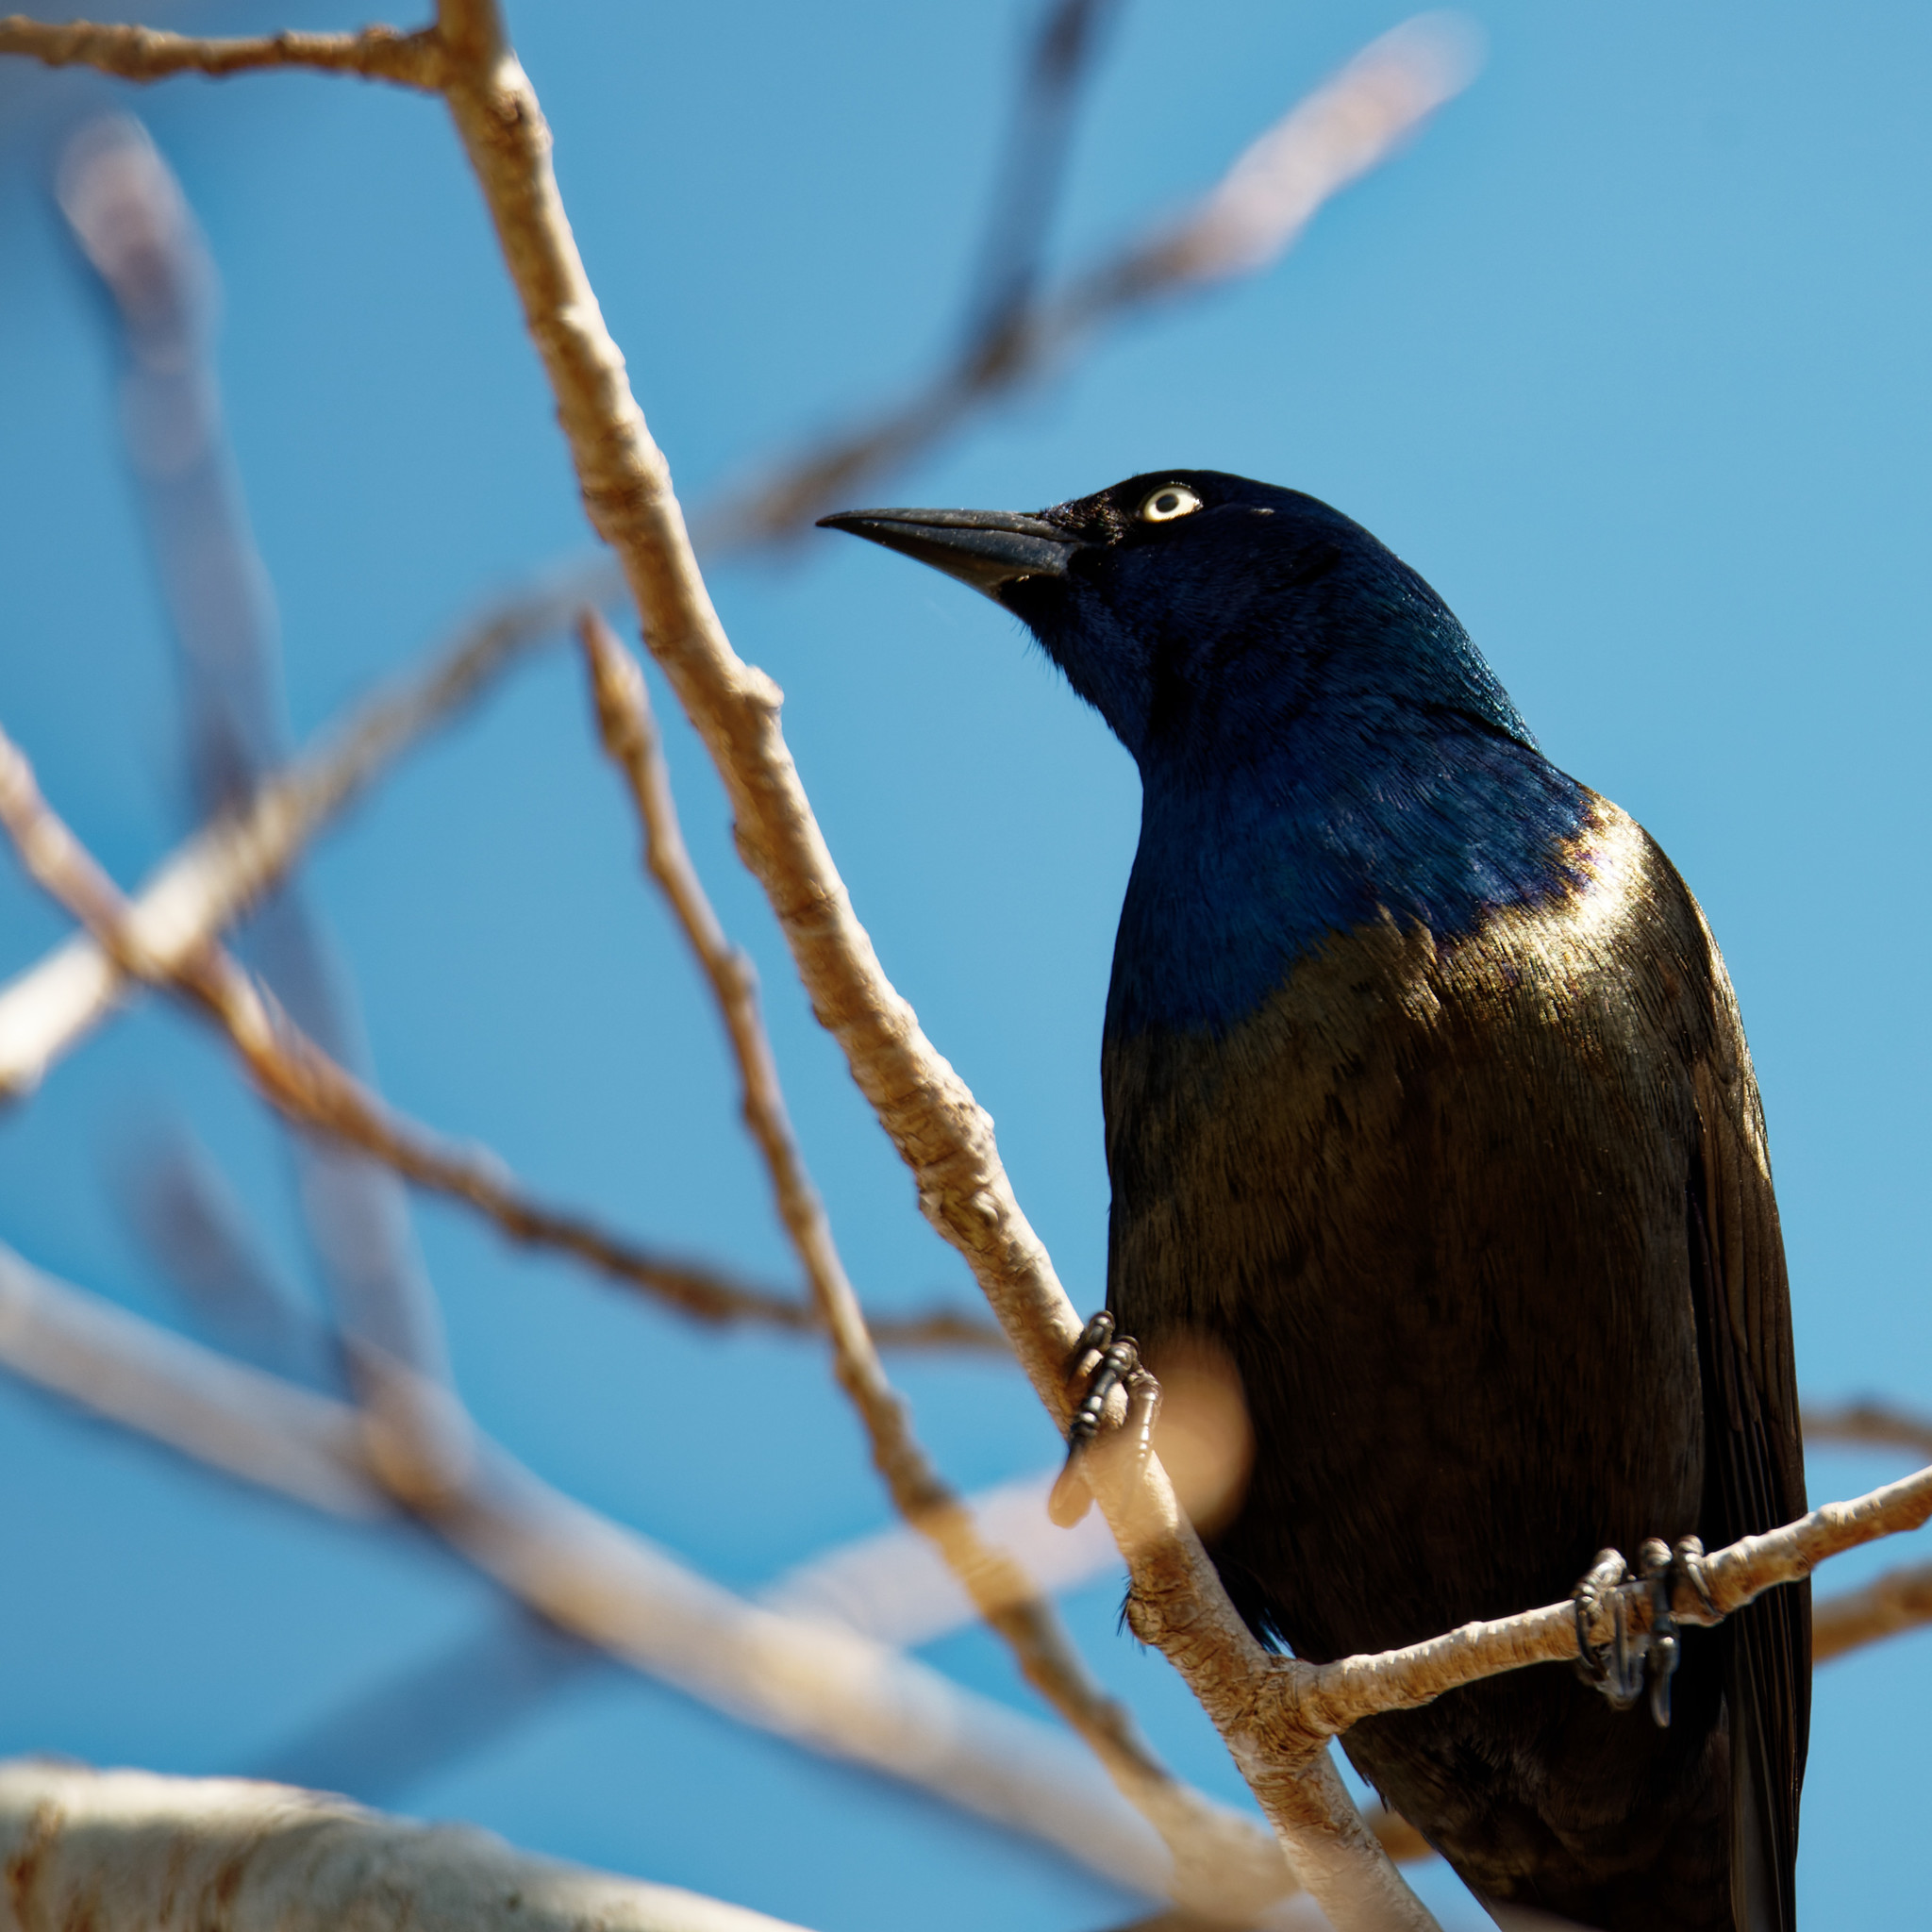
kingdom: Animalia
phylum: Chordata
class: Aves
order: Passeriformes
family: Icteridae
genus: Quiscalus
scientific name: Quiscalus quiscula
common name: Common grackle
